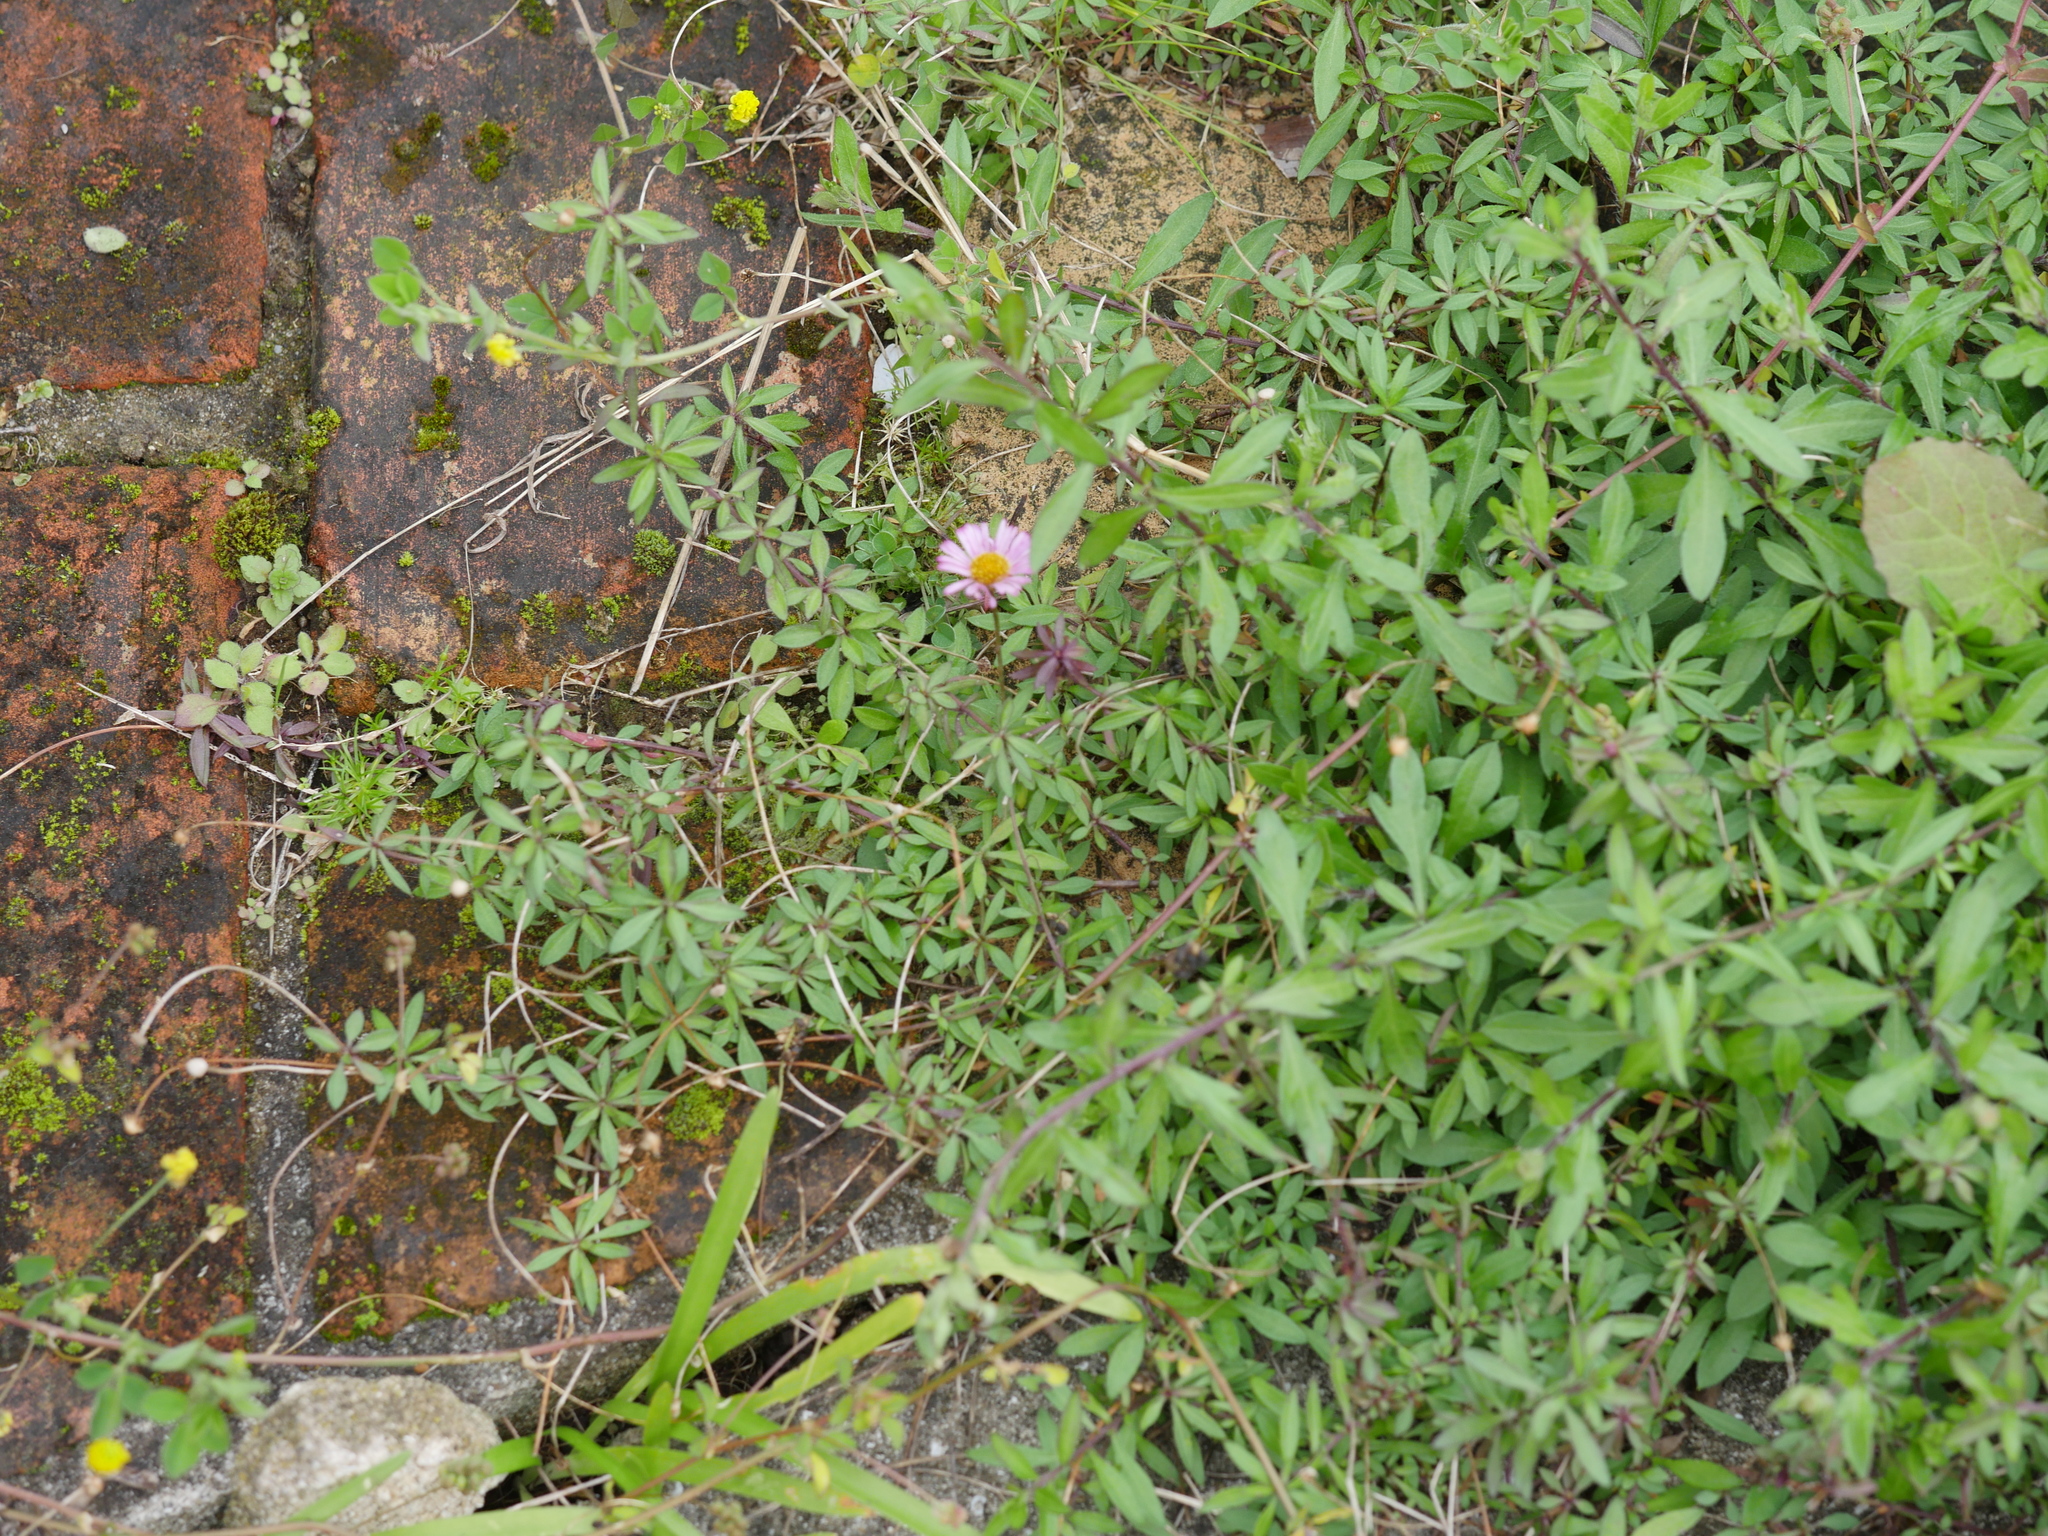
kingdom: Plantae
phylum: Tracheophyta
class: Magnoliopsida
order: Asterales
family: Asteraceae
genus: Erigeron
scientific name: Erigeron karvinskianus
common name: Mexican fleabane
